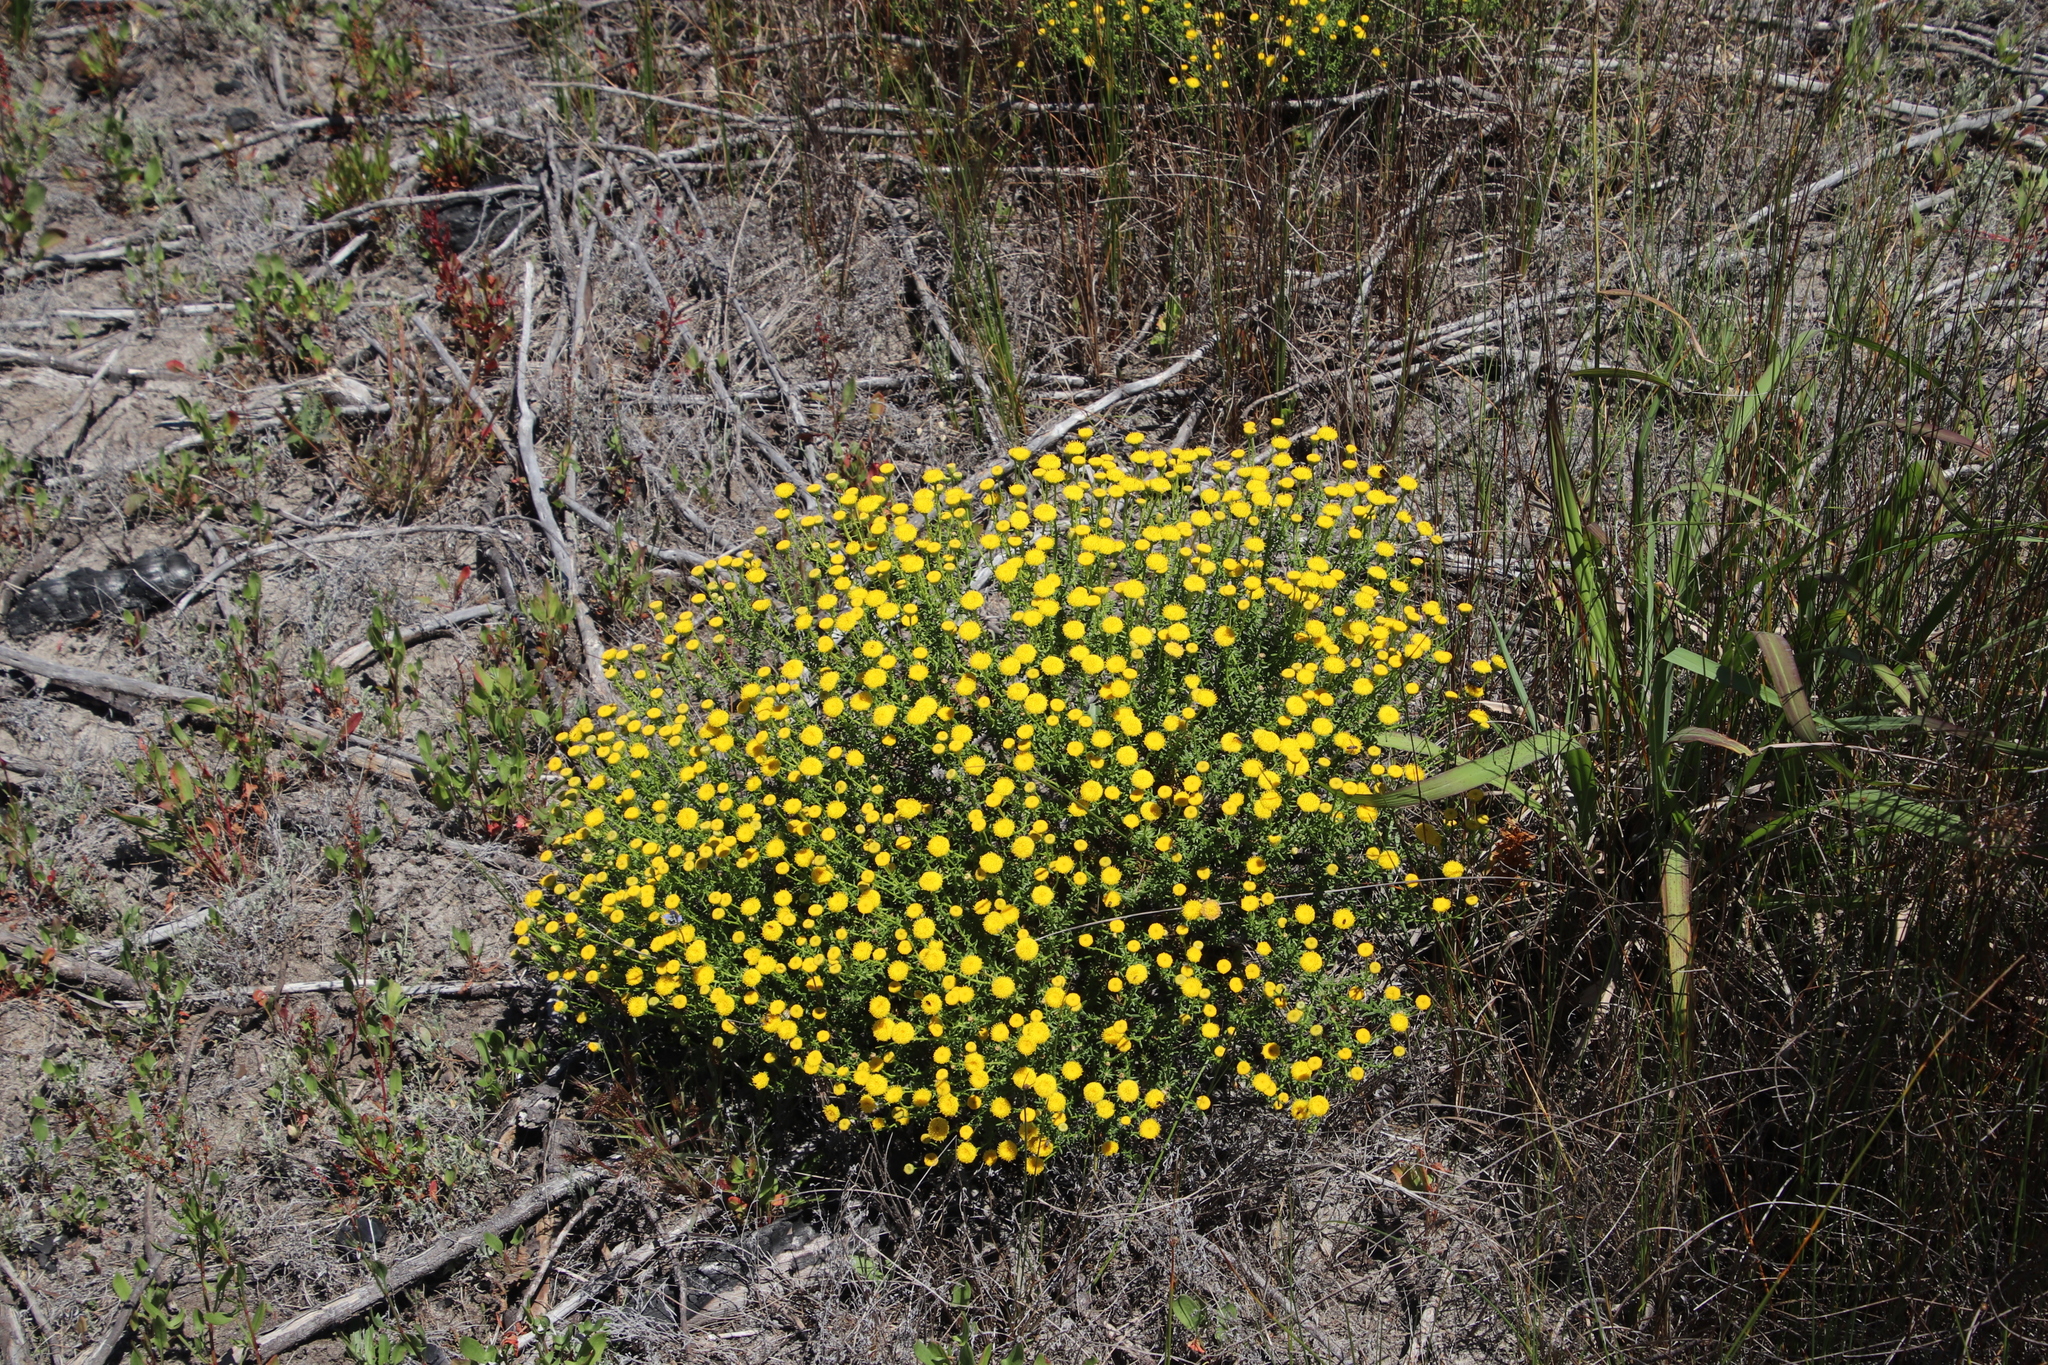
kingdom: Plantae
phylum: Tracheophyta
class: Magnoliopsida
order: Asterales
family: Asteraceae
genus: Chrysocoma
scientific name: Chrysocoma cernua
